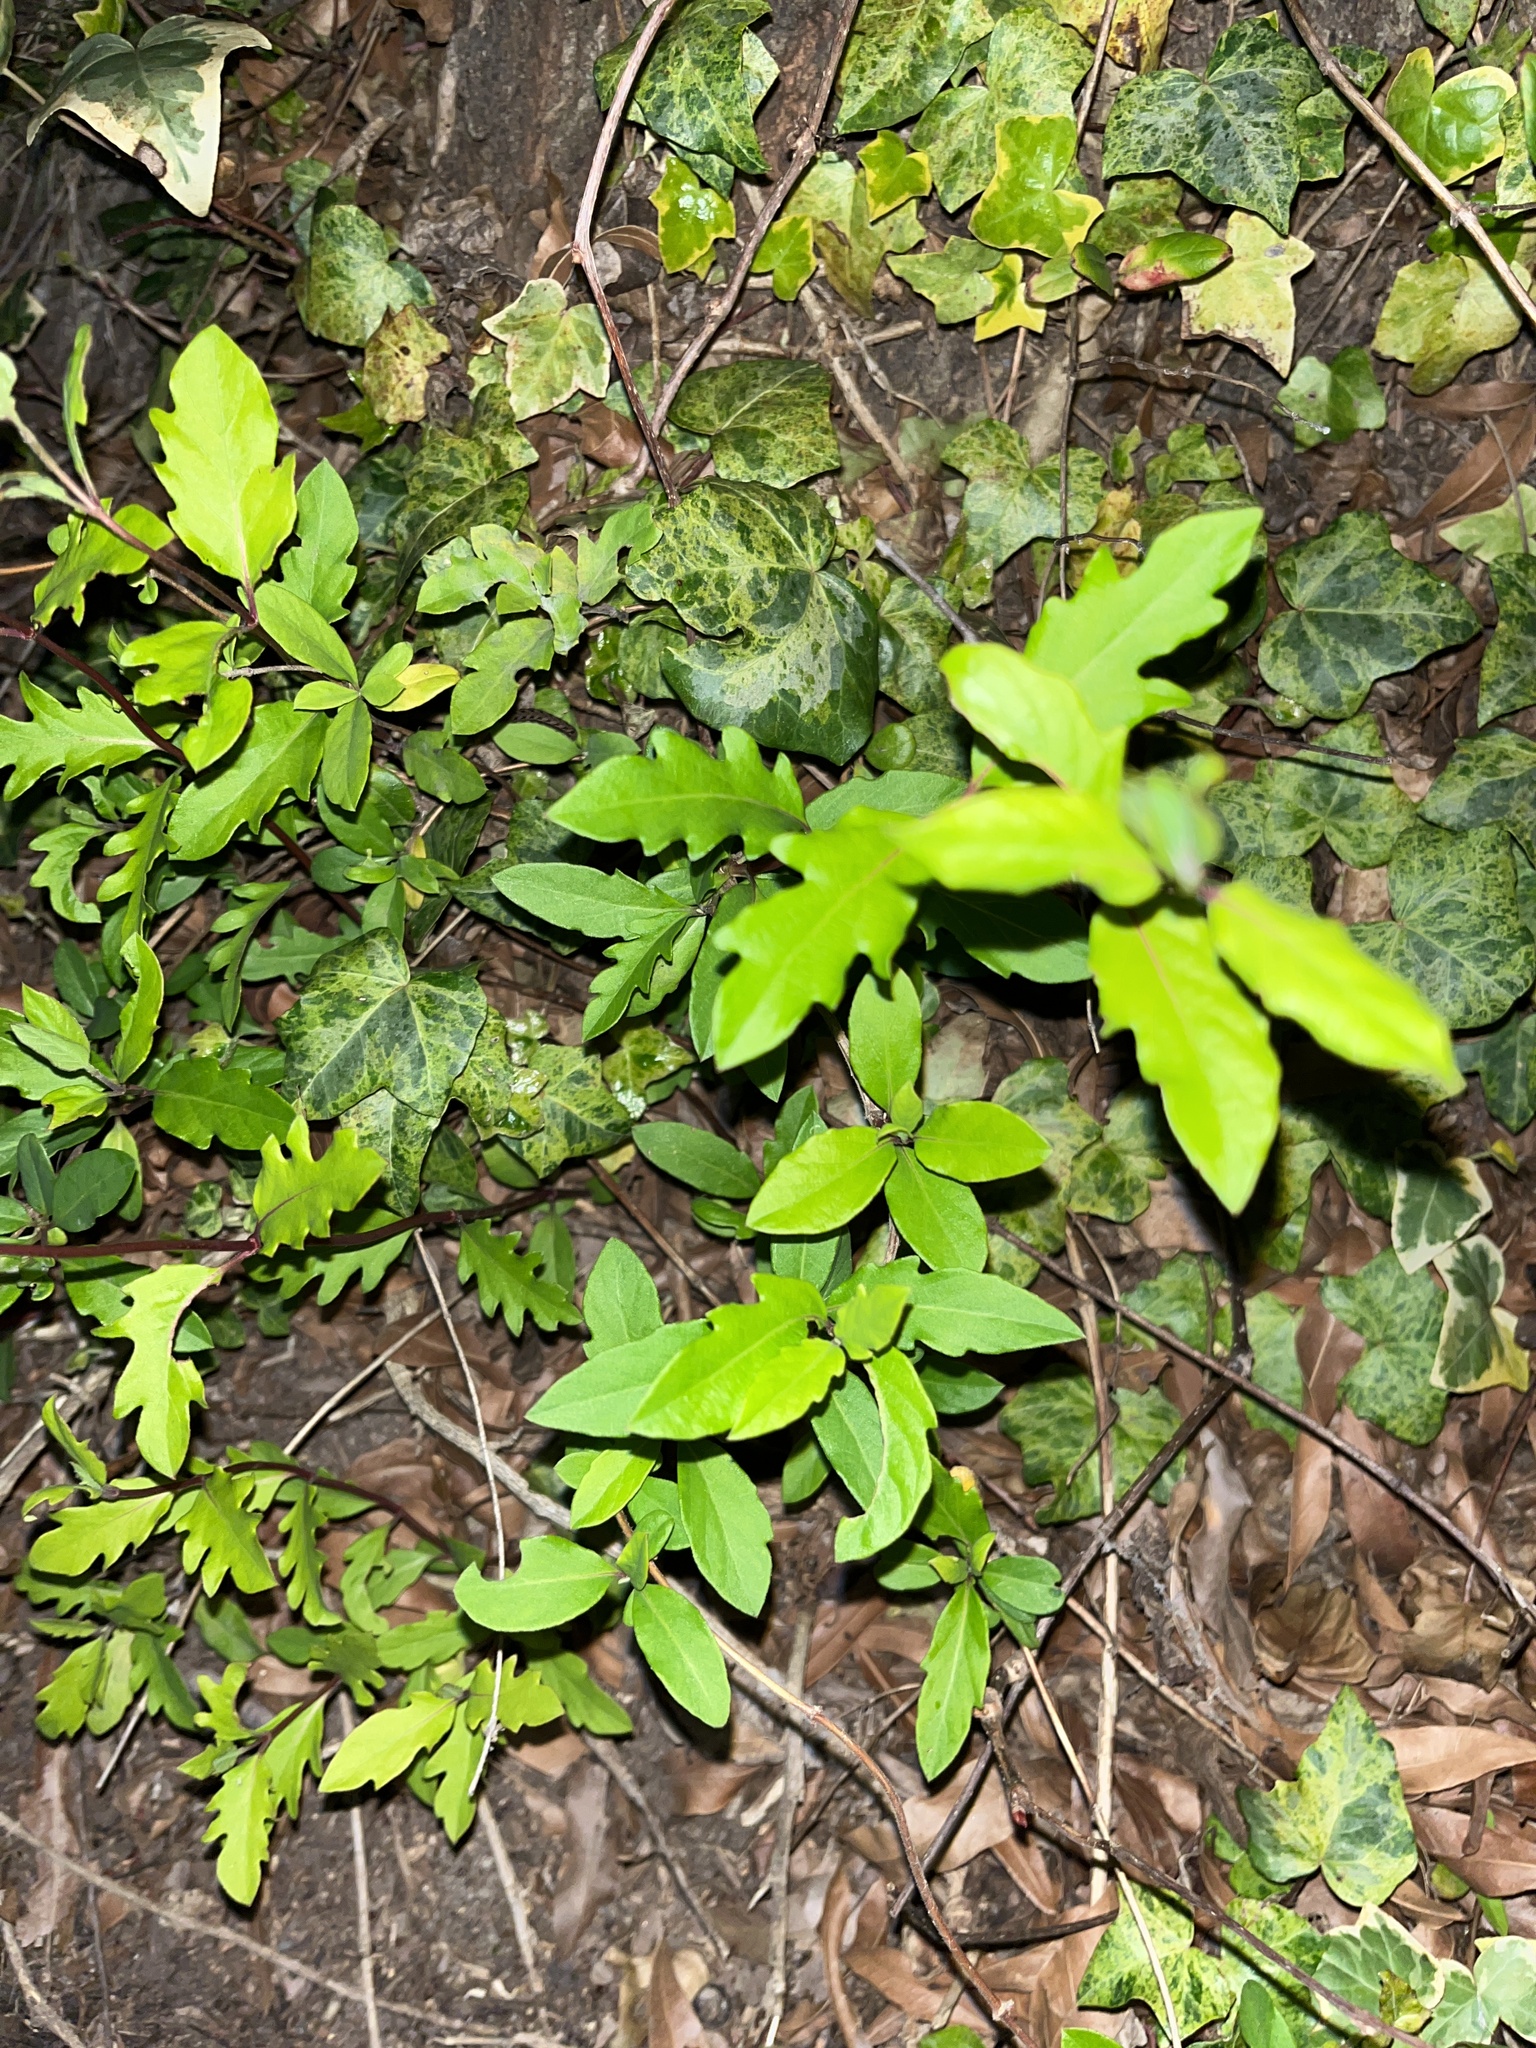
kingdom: Plantae
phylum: Tracheophyta
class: Magnoliopsida
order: Dipsacales
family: Caprifoliaceae
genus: Lonicera
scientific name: Lonicera japonica
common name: Japanese honeysuckle
